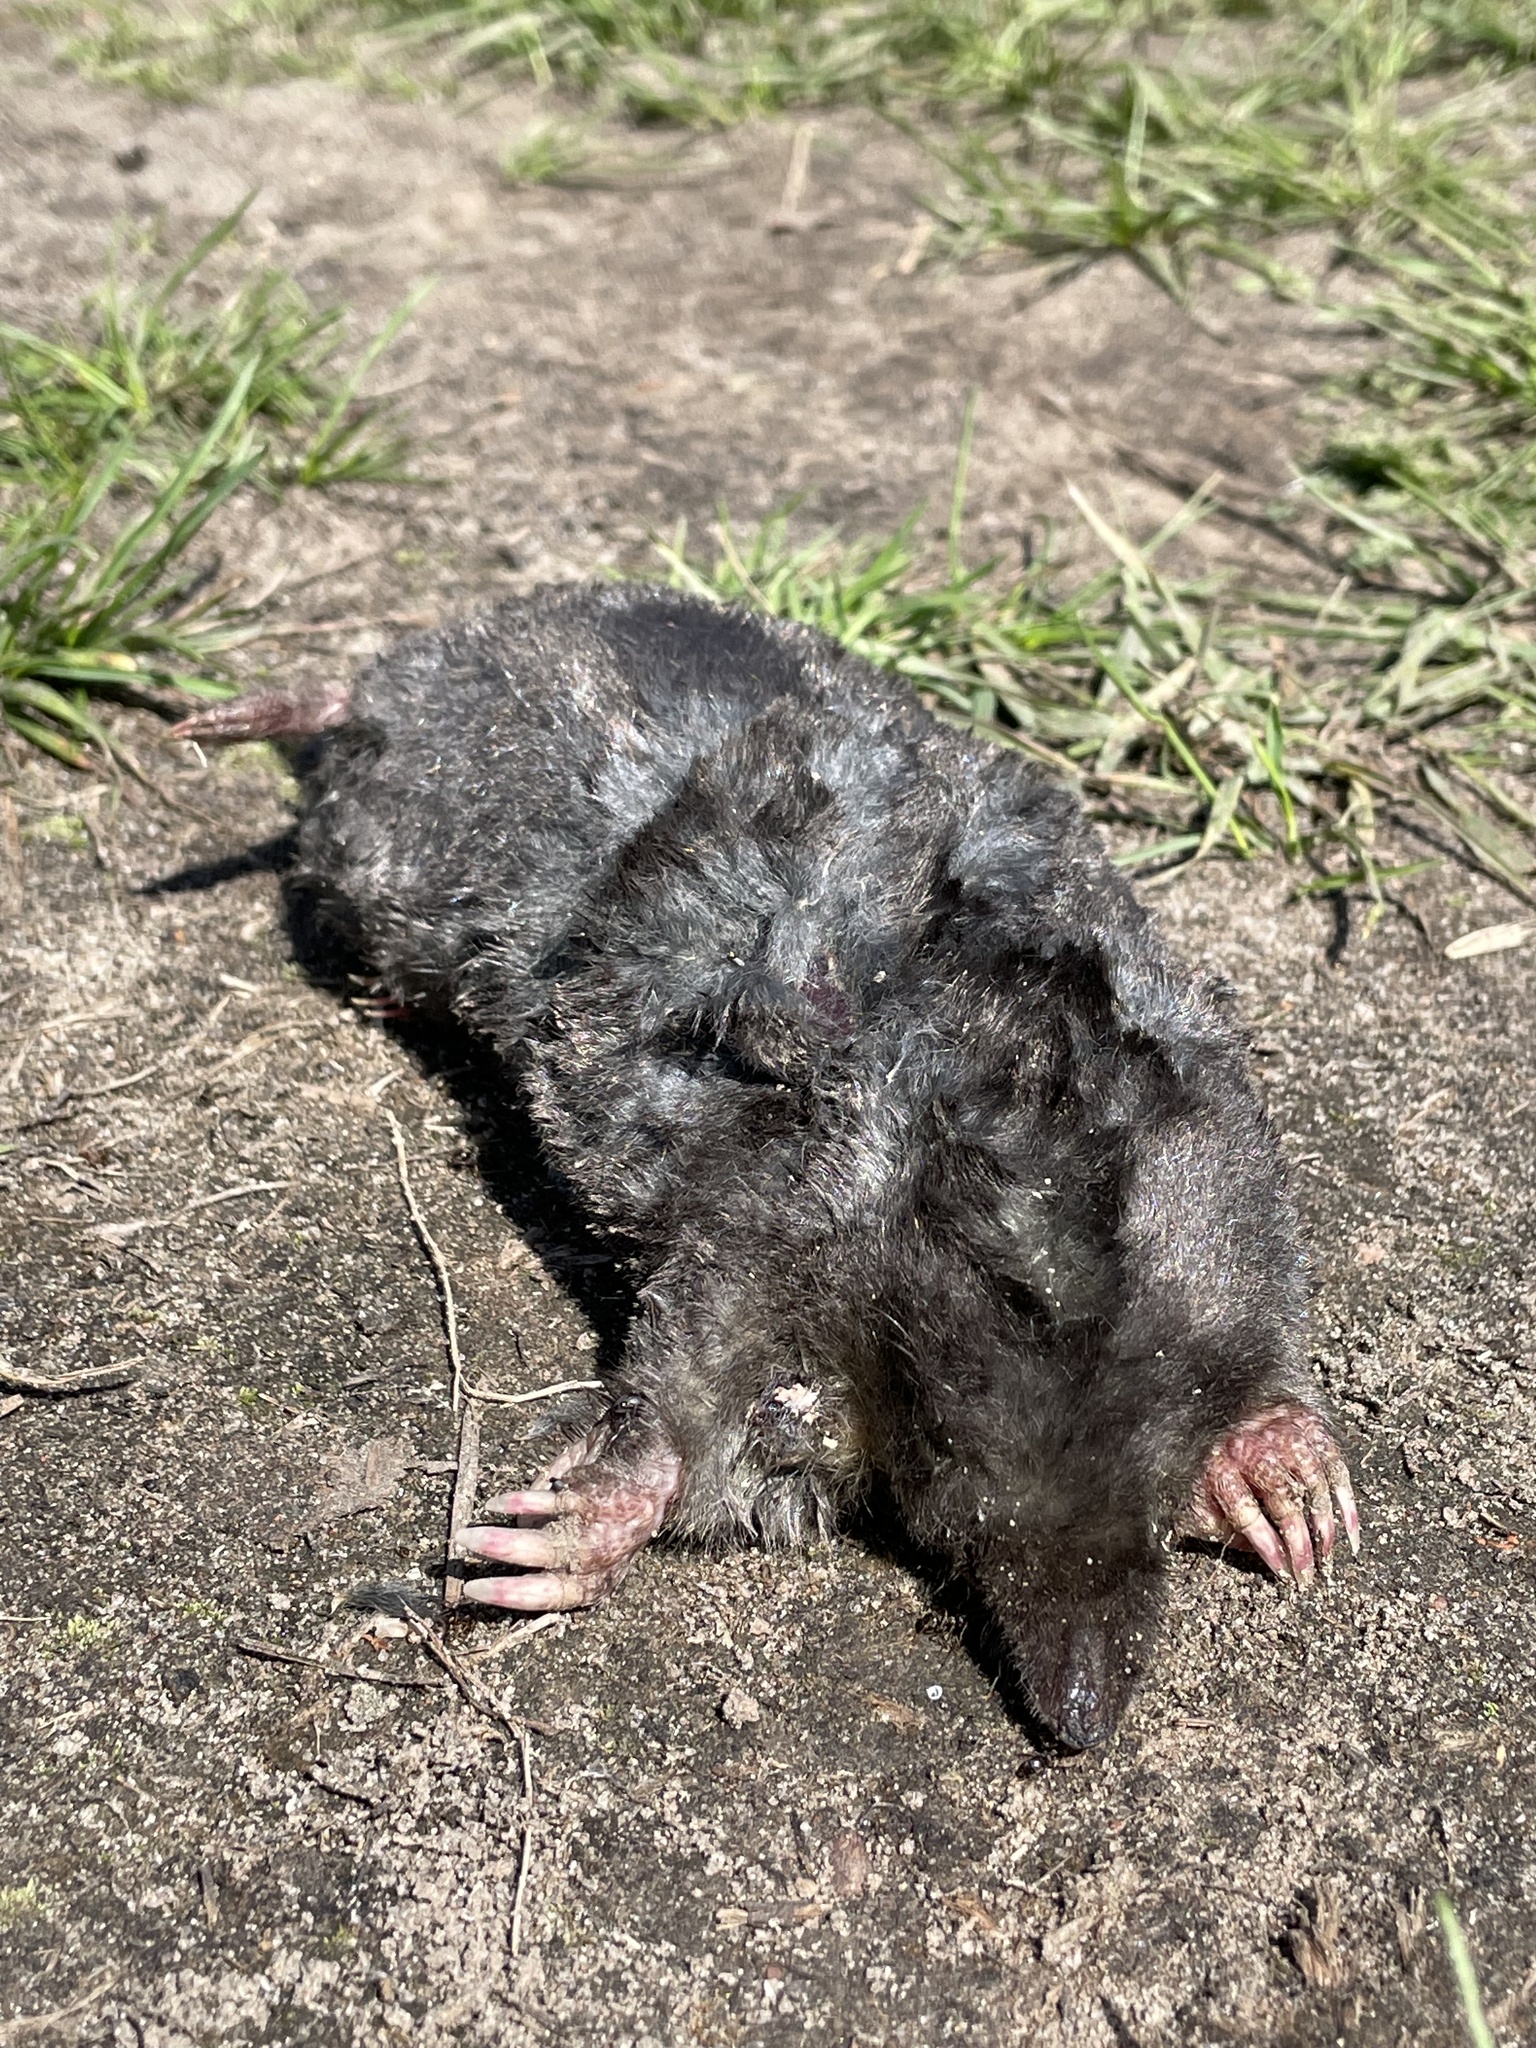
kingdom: Animalia
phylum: Chordata
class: Mammalia
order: Soricomorpha
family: Talpidae
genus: Talpa
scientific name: Talpa europaea
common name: European mole
